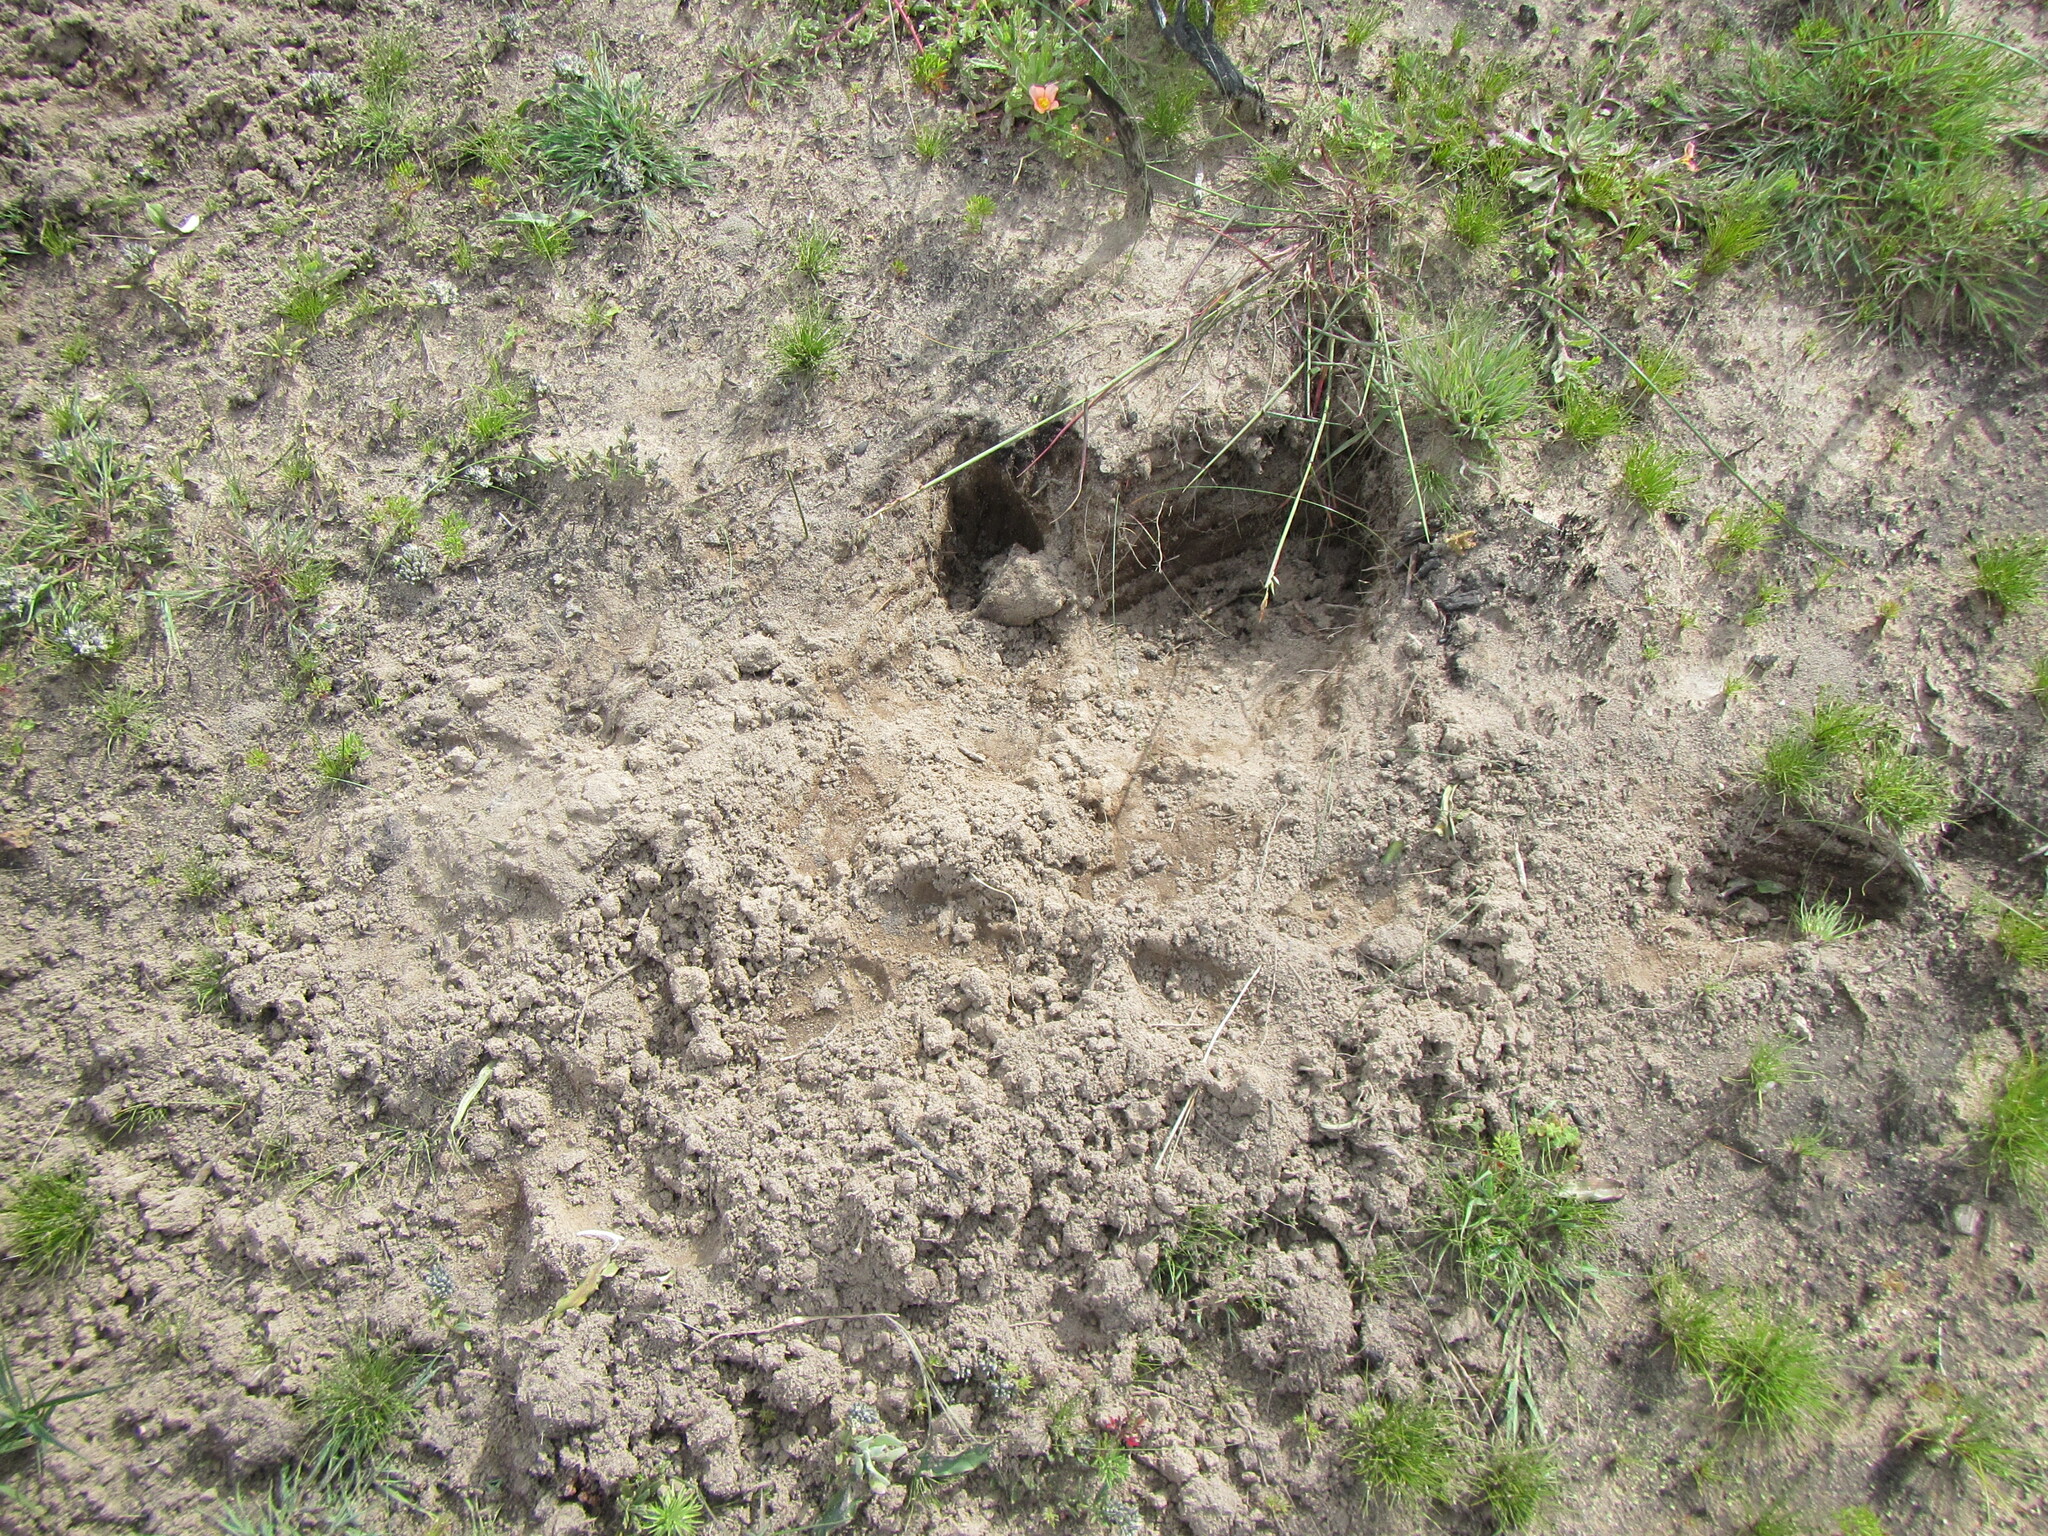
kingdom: Animalia
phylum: Chordata
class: Mammalia
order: Rodentia
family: Hystricidae
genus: Hystrix
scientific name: Hystrix africaeaustralis
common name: Cape porcupine
